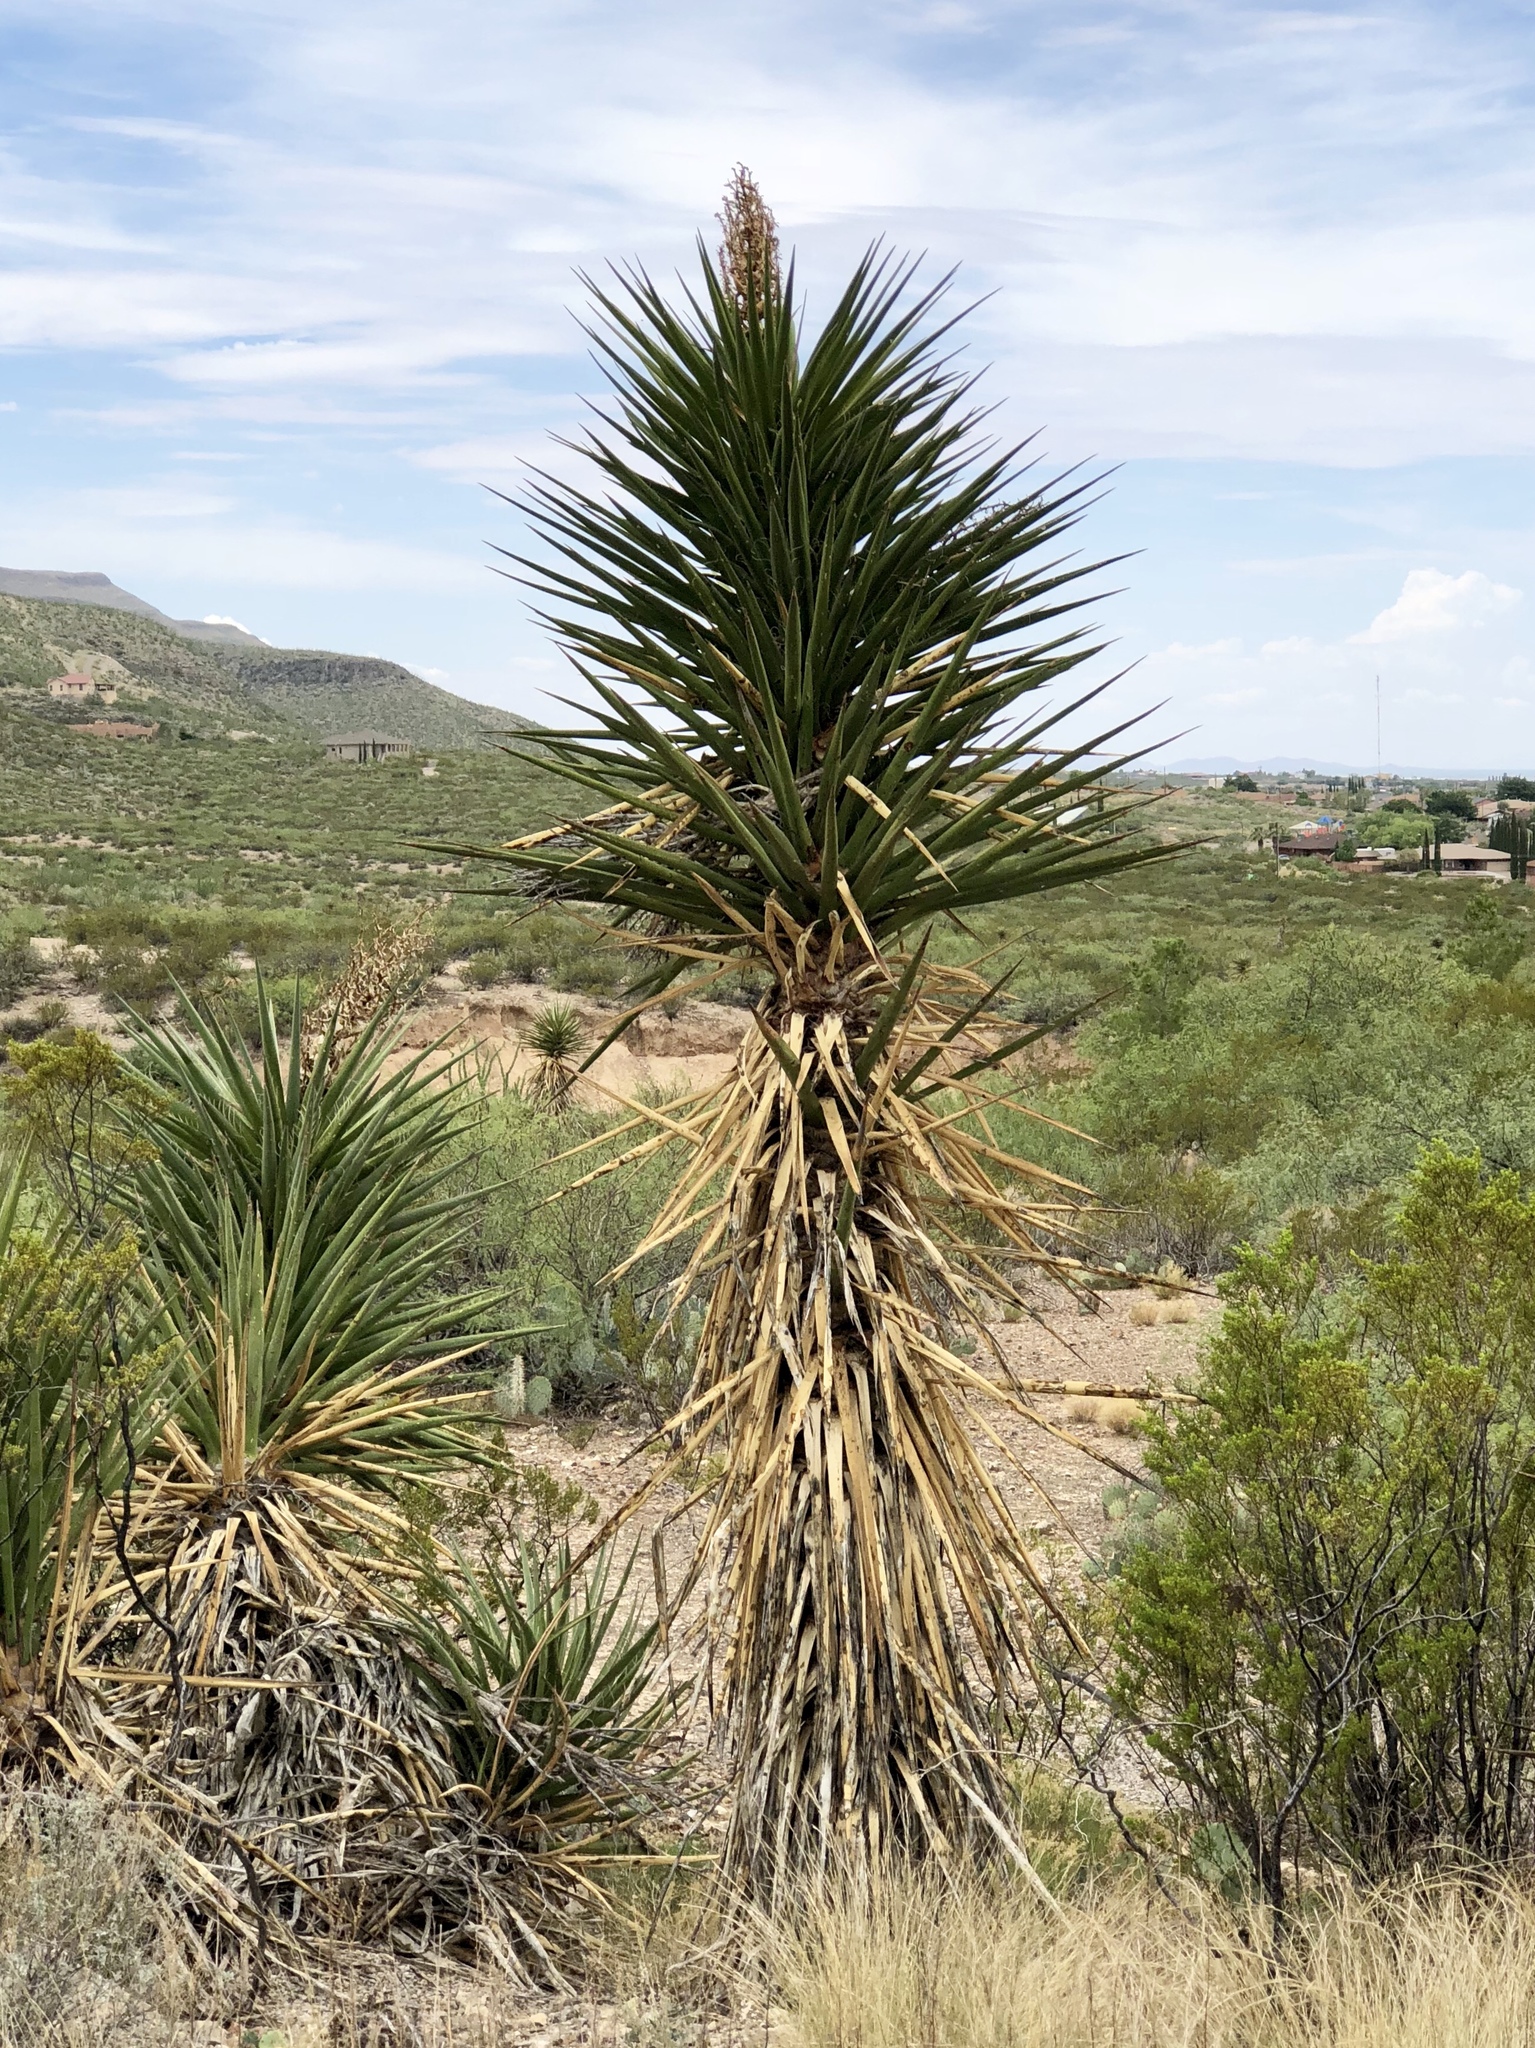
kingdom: Plantae
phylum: Tracheophyta
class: Liliopsida
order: Asparagales
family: Asparagaceae
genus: Yucca
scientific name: Yucca treculiana
